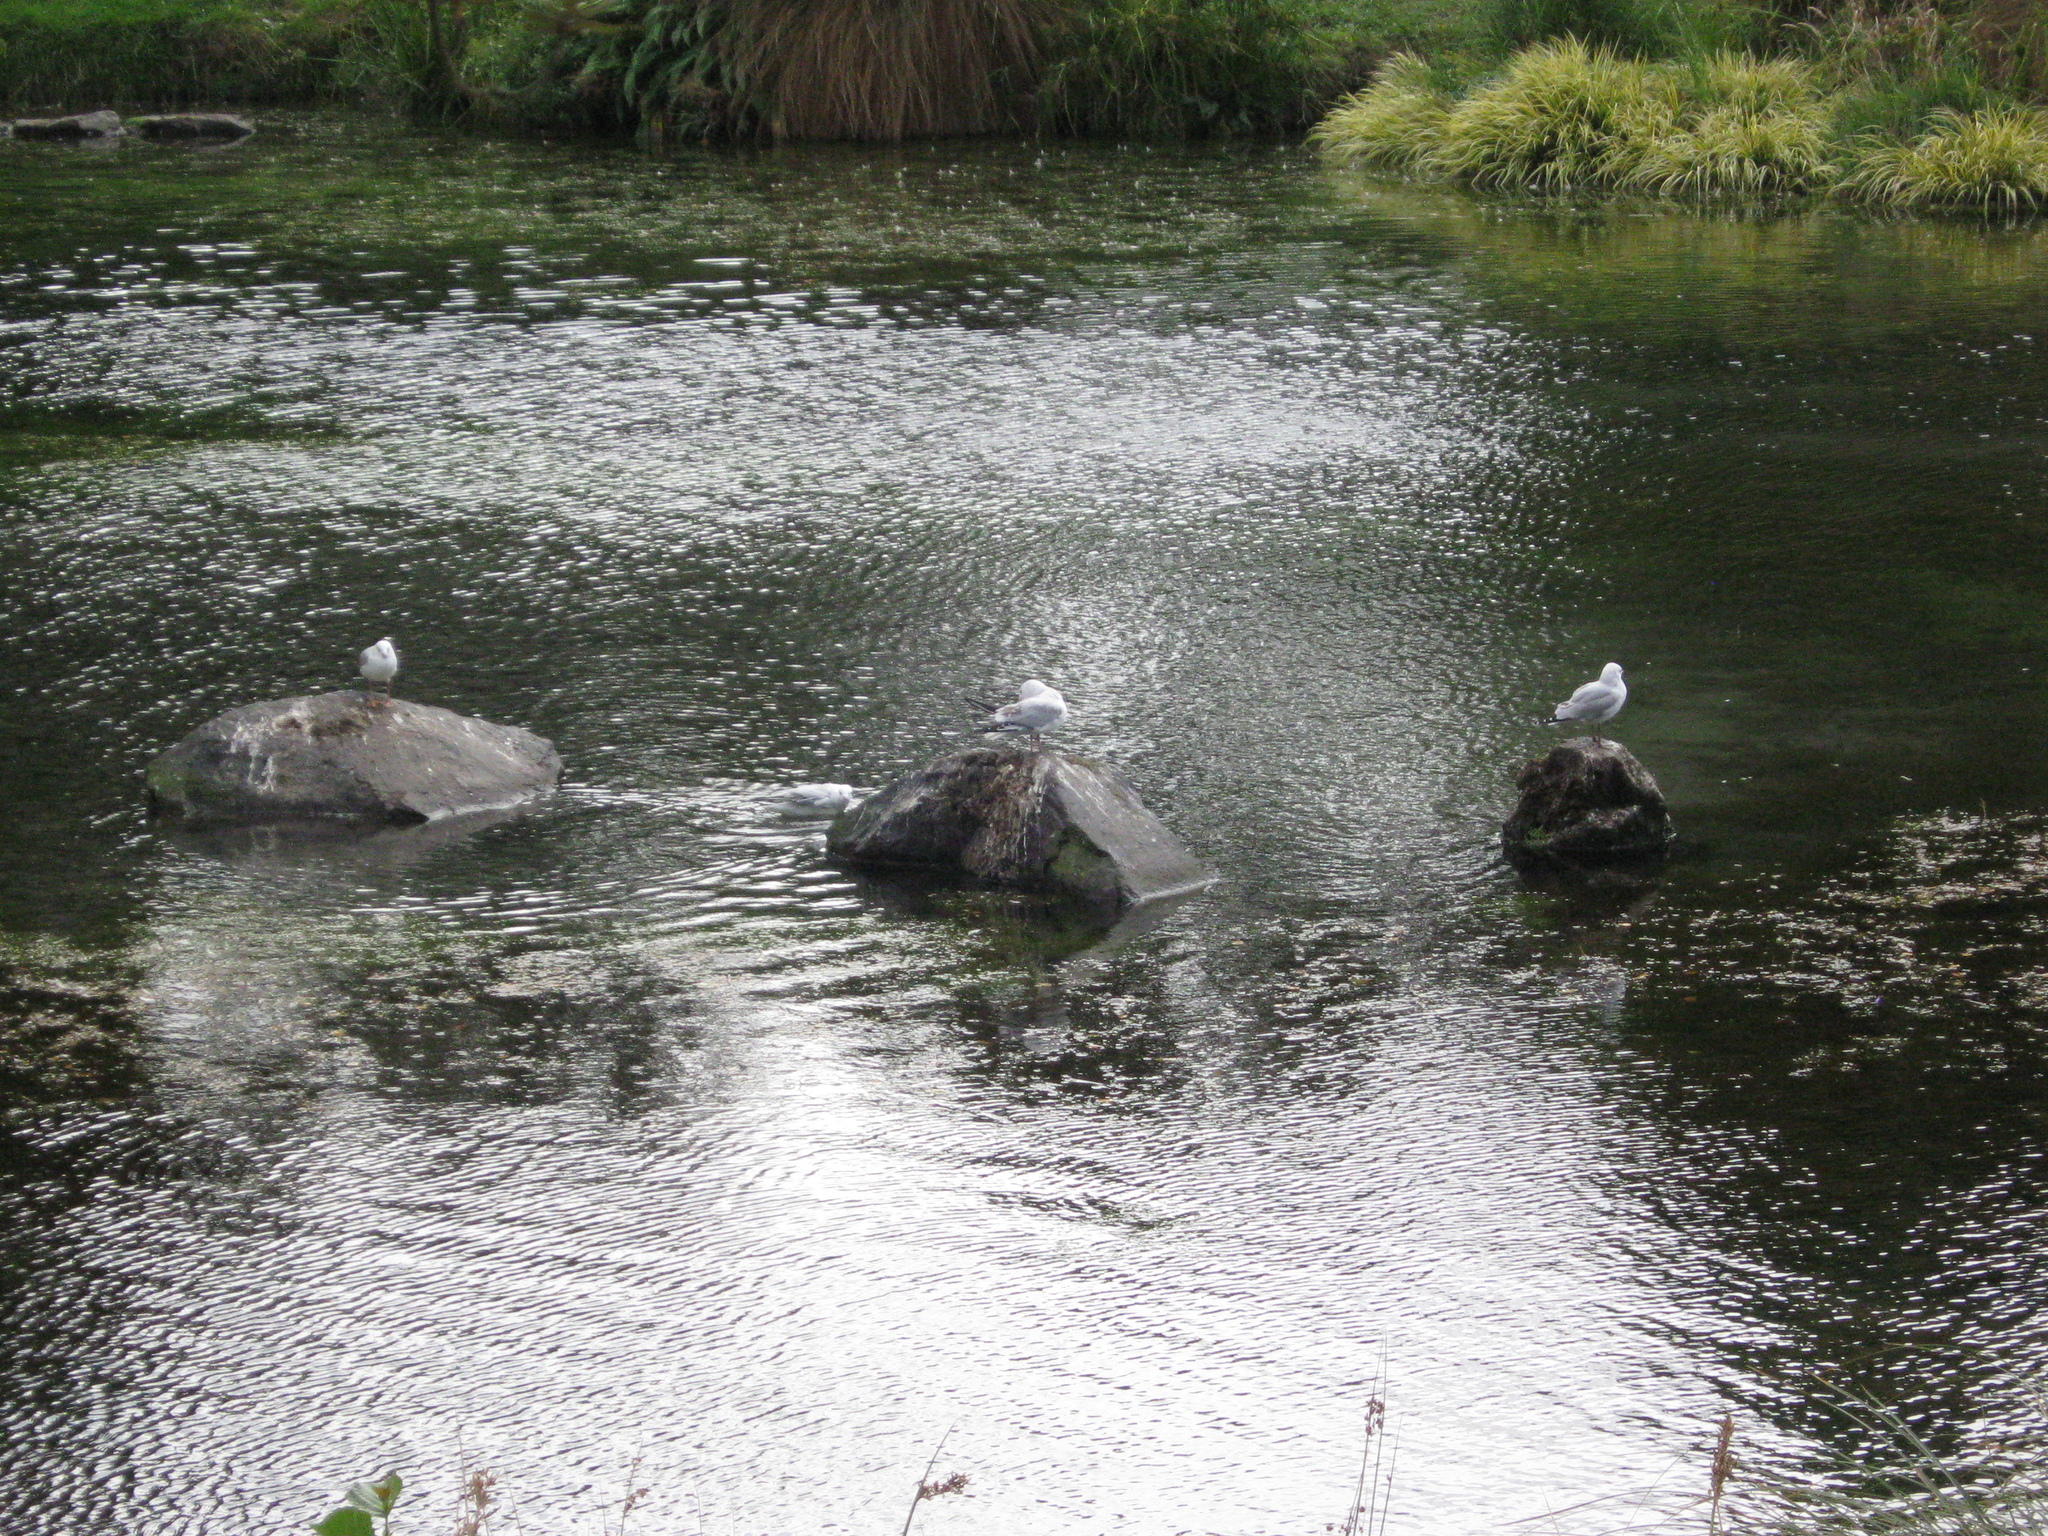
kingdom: Animalia
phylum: Chordata
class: Aves
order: Charadriiformes
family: Laridae
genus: Chroicocephalus
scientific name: Chroicocephalus novaehollandiae
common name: Silver gull
